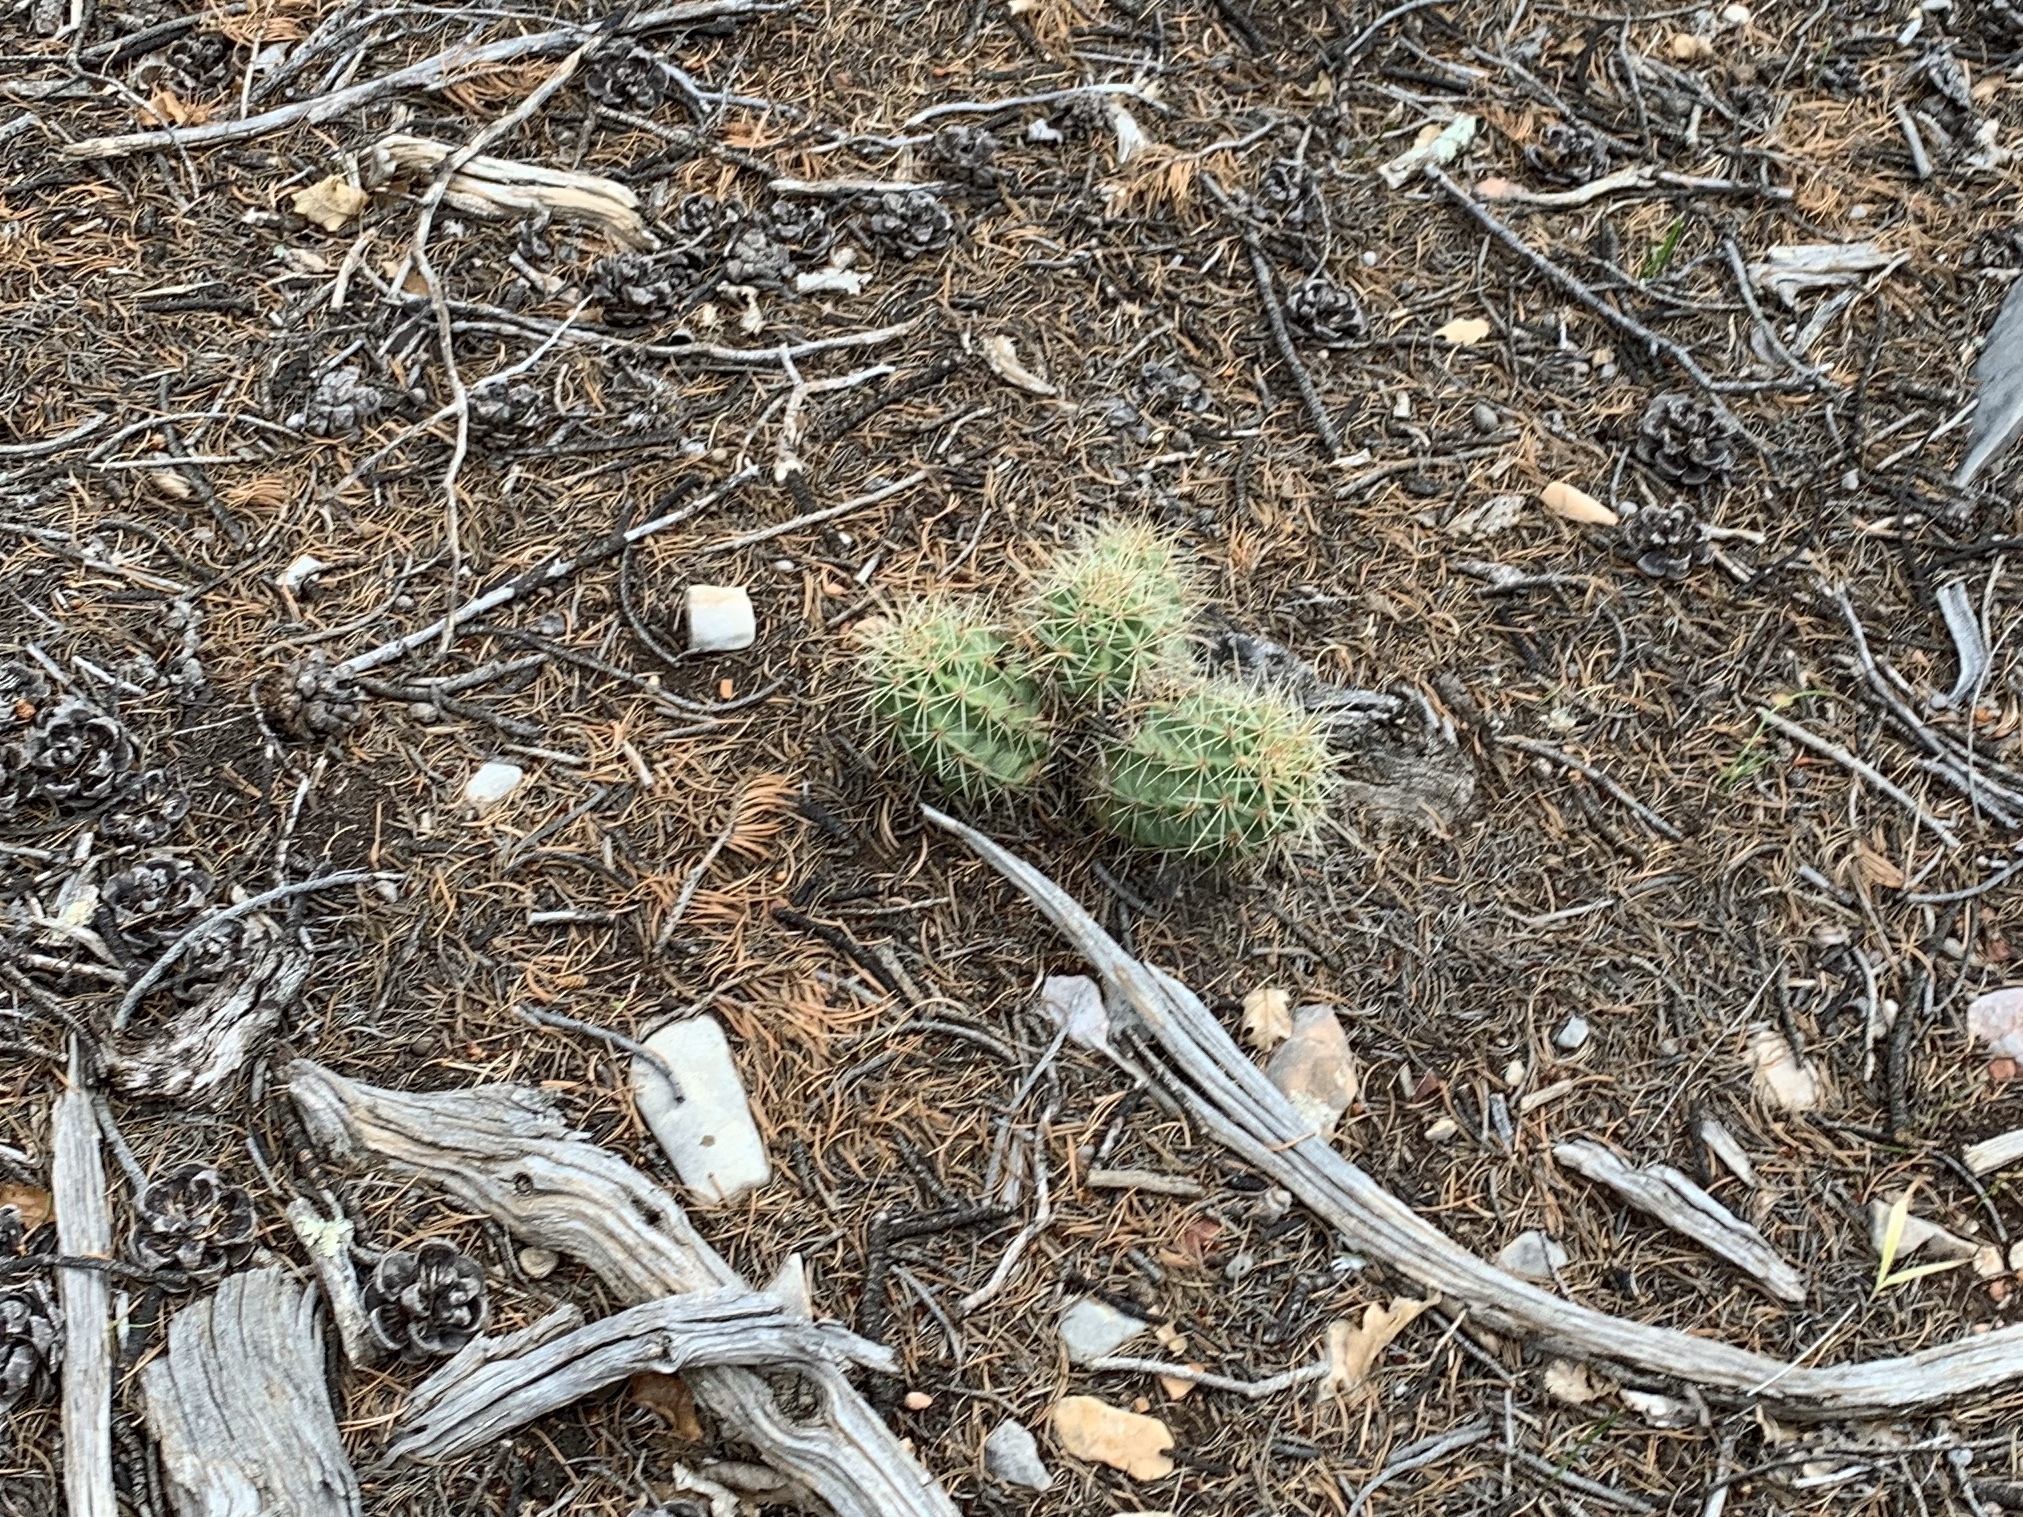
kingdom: Plantae
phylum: Tracheophyta
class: Magnoliopsida
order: Caryophyllales
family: Cactaceae
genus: Echinocereus
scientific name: Echinocereus coccineus
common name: Scarlet hedgehog cactus
